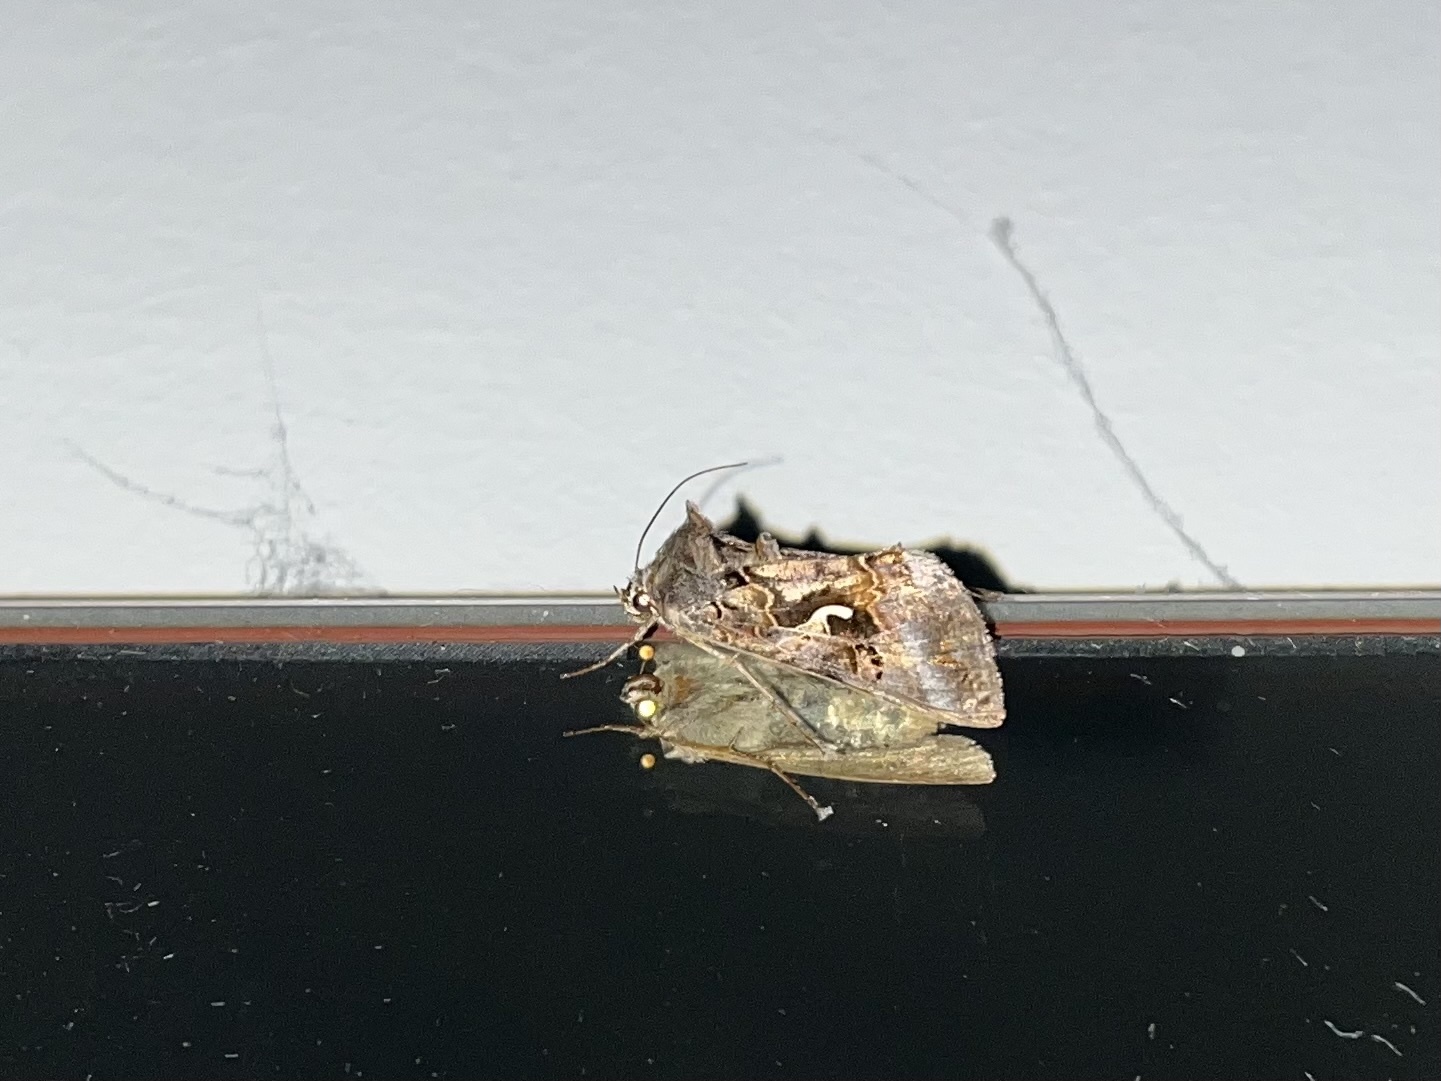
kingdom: Animalia
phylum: Arthropoda
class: Insecta
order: Lepidoptera
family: Noctuidae
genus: Autographa
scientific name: Autographa gamma
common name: Silver y
